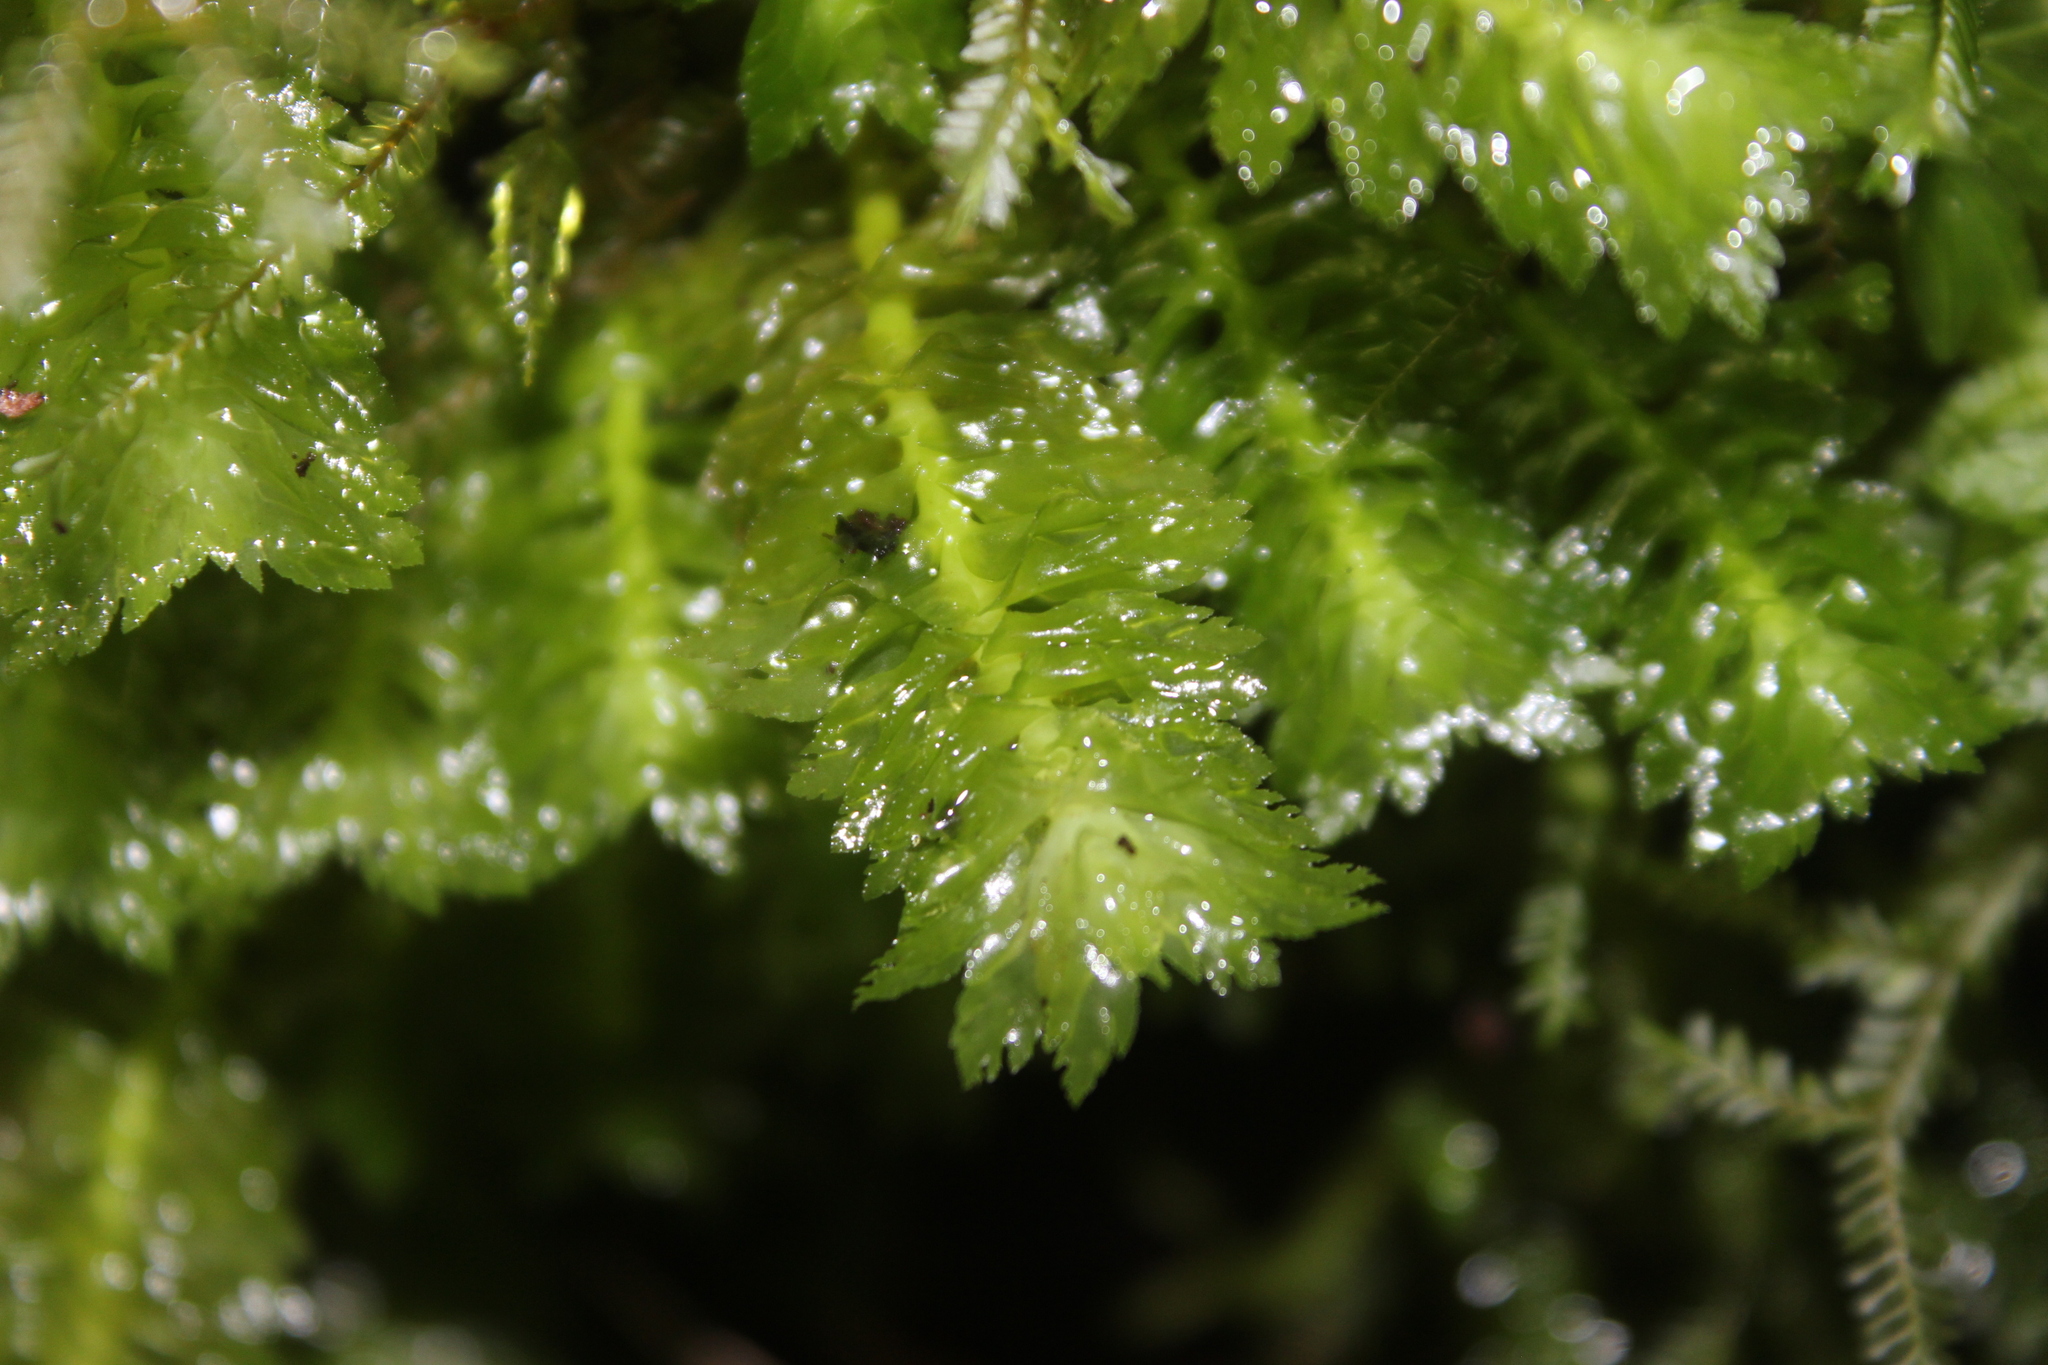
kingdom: Plantae
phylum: Marchantiophyta
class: Jungermanniopsida
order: Jungermanniales
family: Schistochilaceae
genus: Schistochila
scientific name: Schistochila appendiculata
